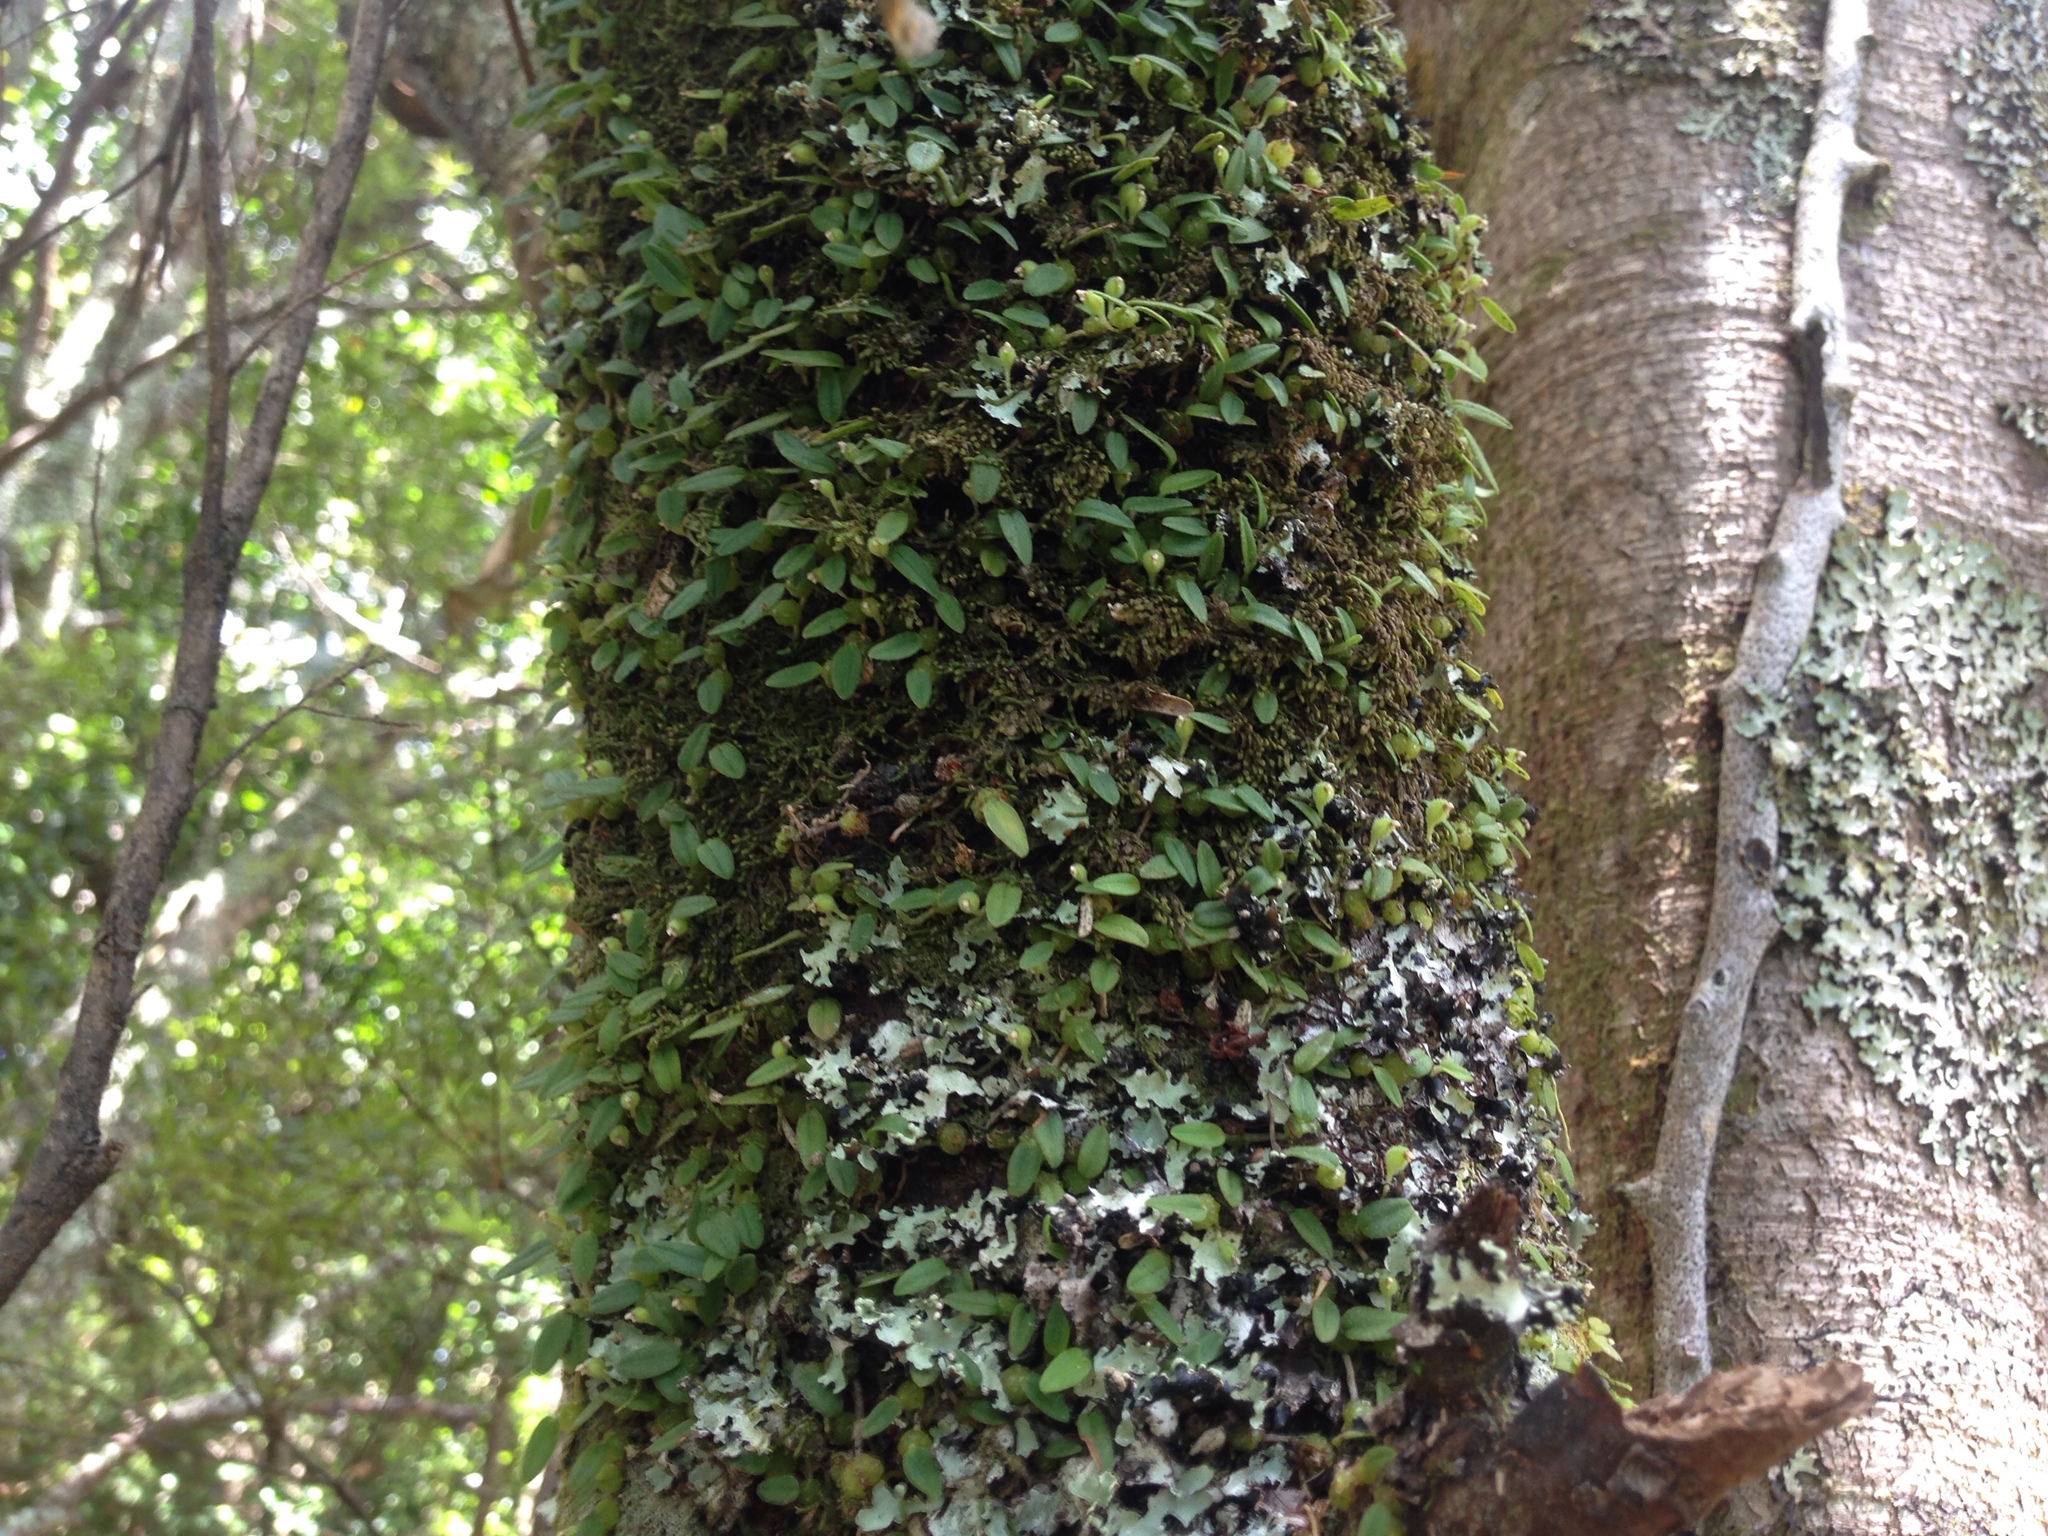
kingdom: Plantae
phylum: Tracheophyta
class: Liliopsida
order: Asparagales
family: Orchidaceae
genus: Bulbophyllum
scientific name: Bulbophyllum pygmaeum
